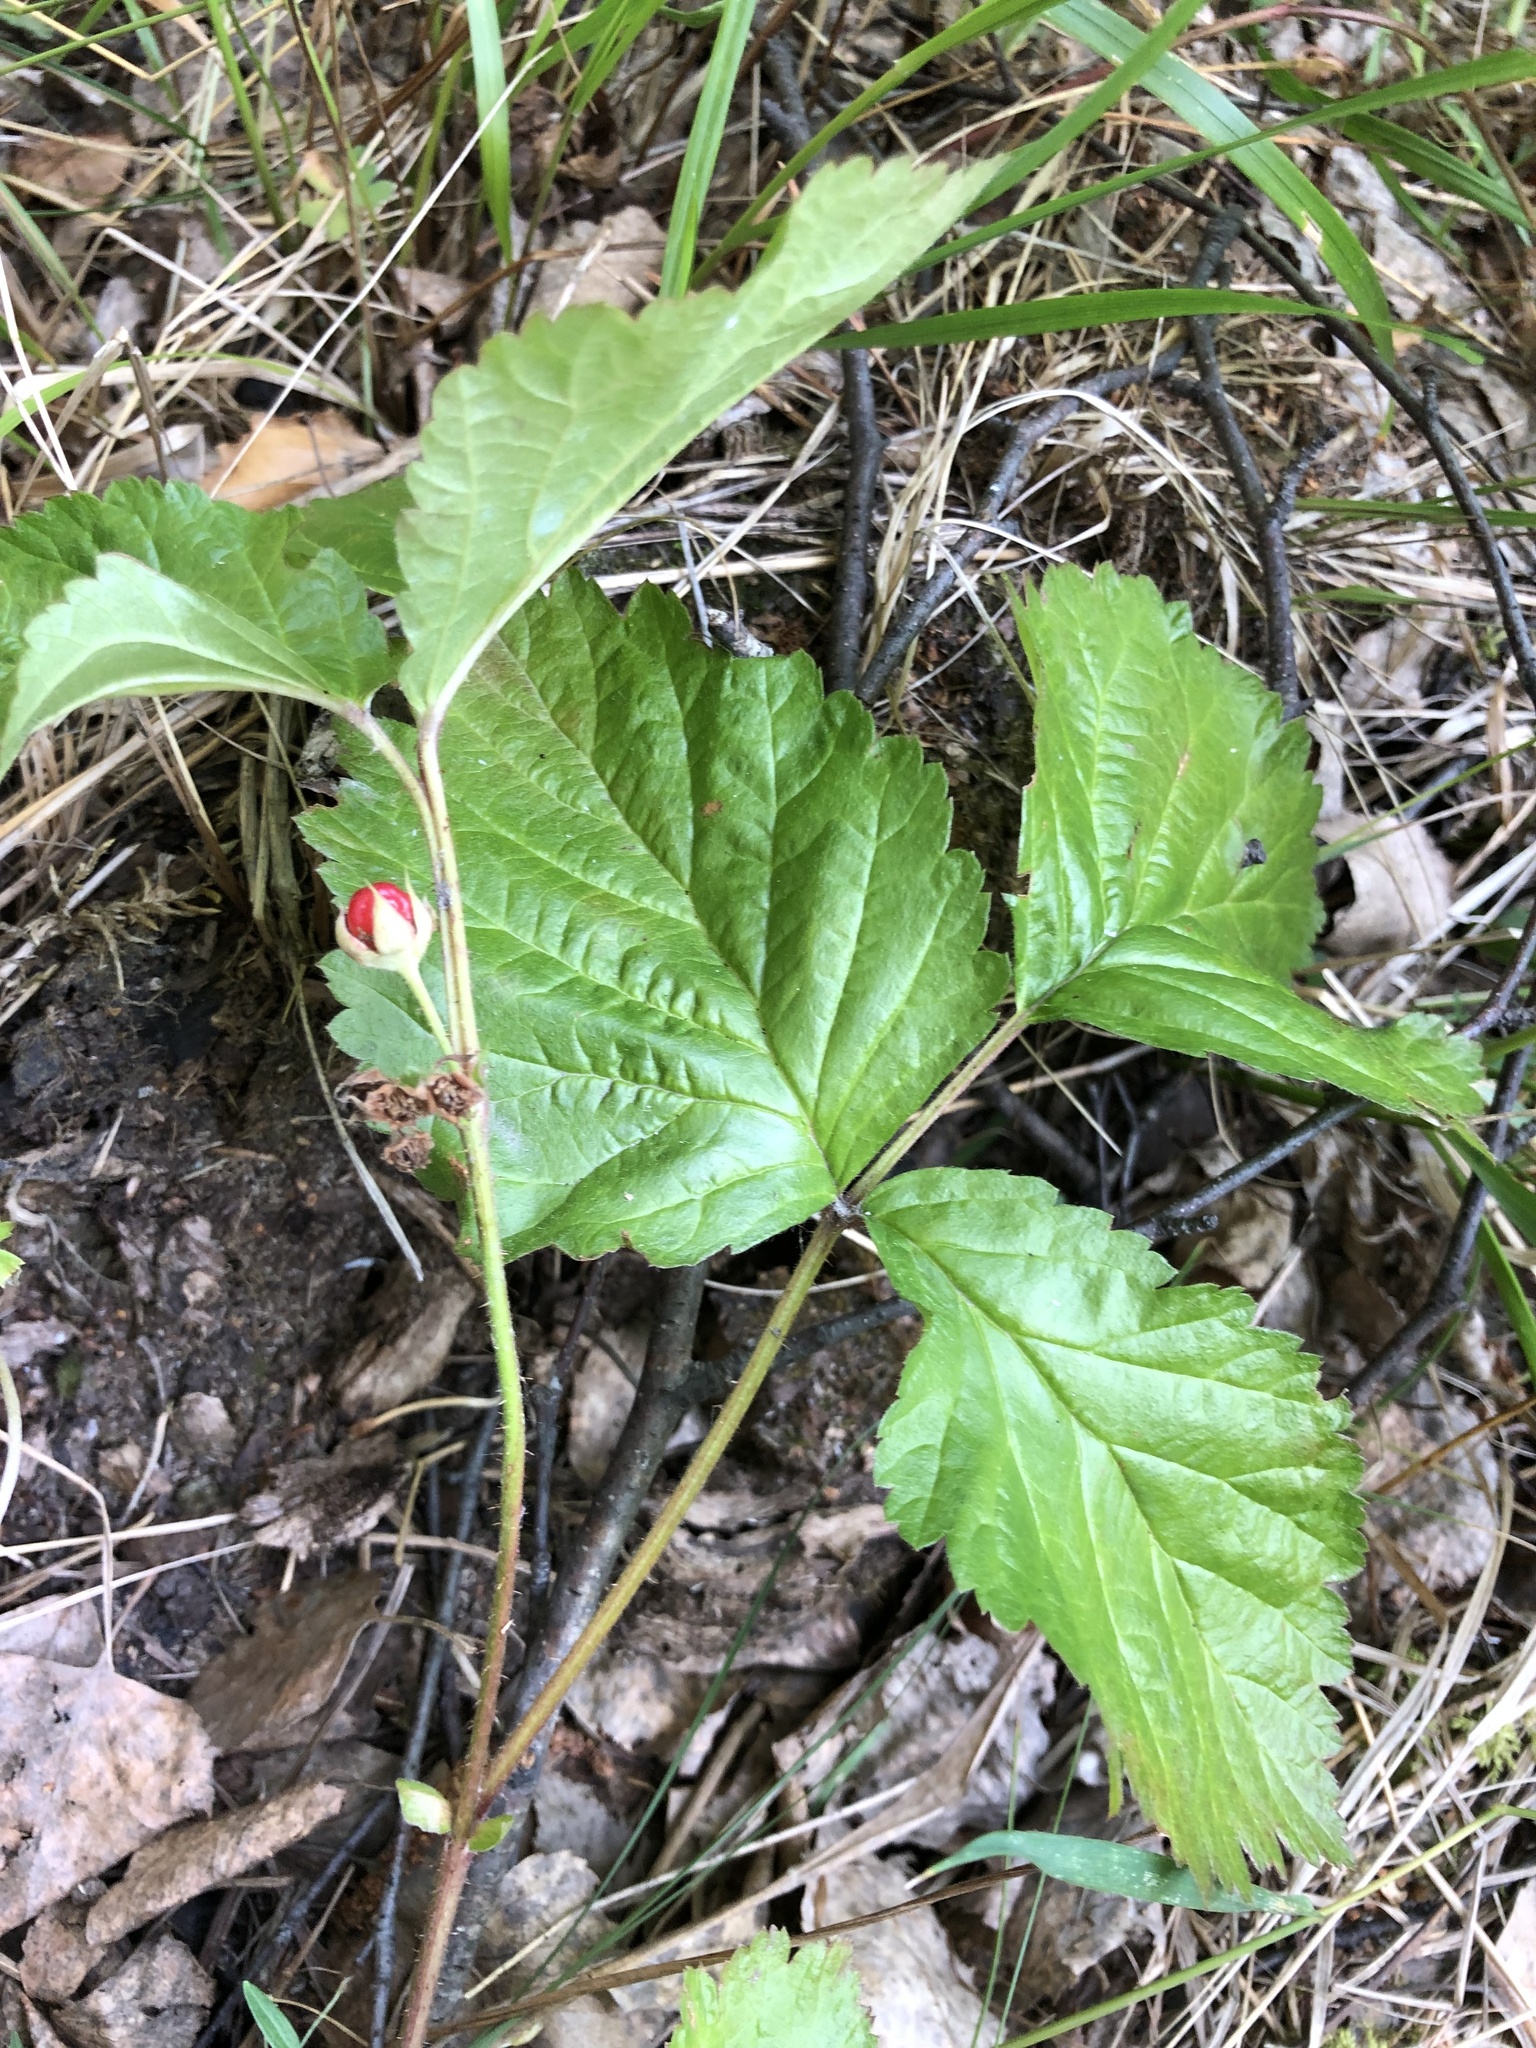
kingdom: Plantae
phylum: Tracheophyta
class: Magnoliopsida
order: Rosales
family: Rosaceae
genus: Rubus
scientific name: Rubus saxatilis
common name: Stone bramble
